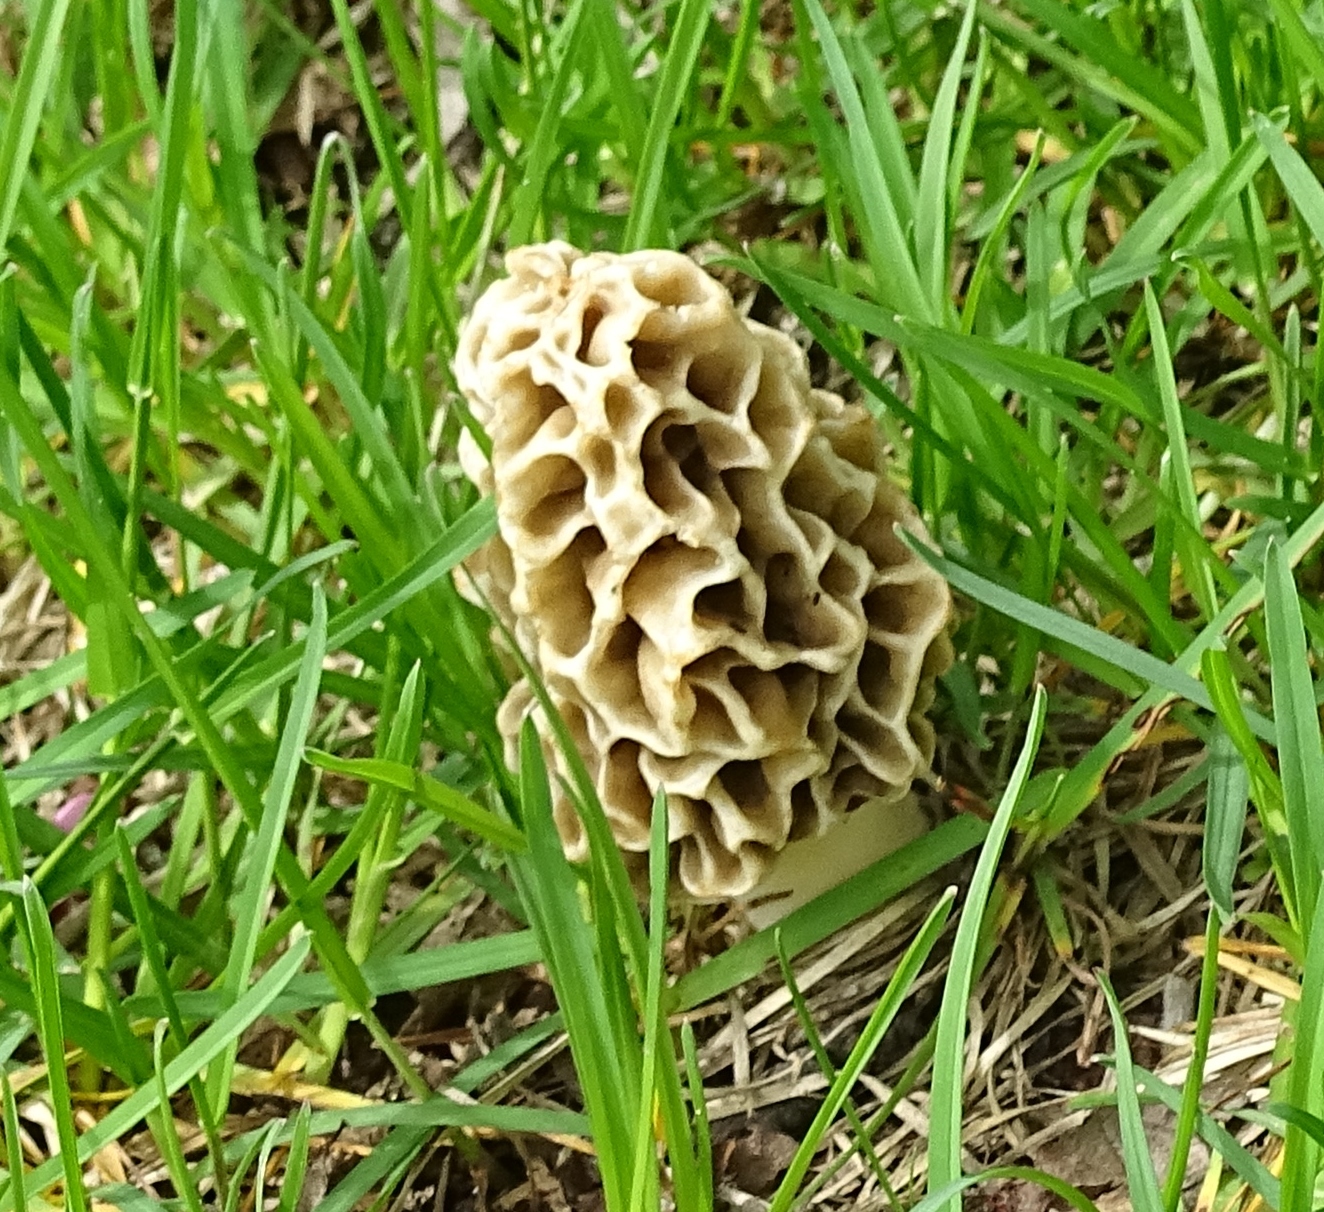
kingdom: Fungi
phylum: Ascomycota
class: Pezizomycetes
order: Pezizales
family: Morchellaceae
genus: Morchella
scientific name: Morchella americana
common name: White morel
